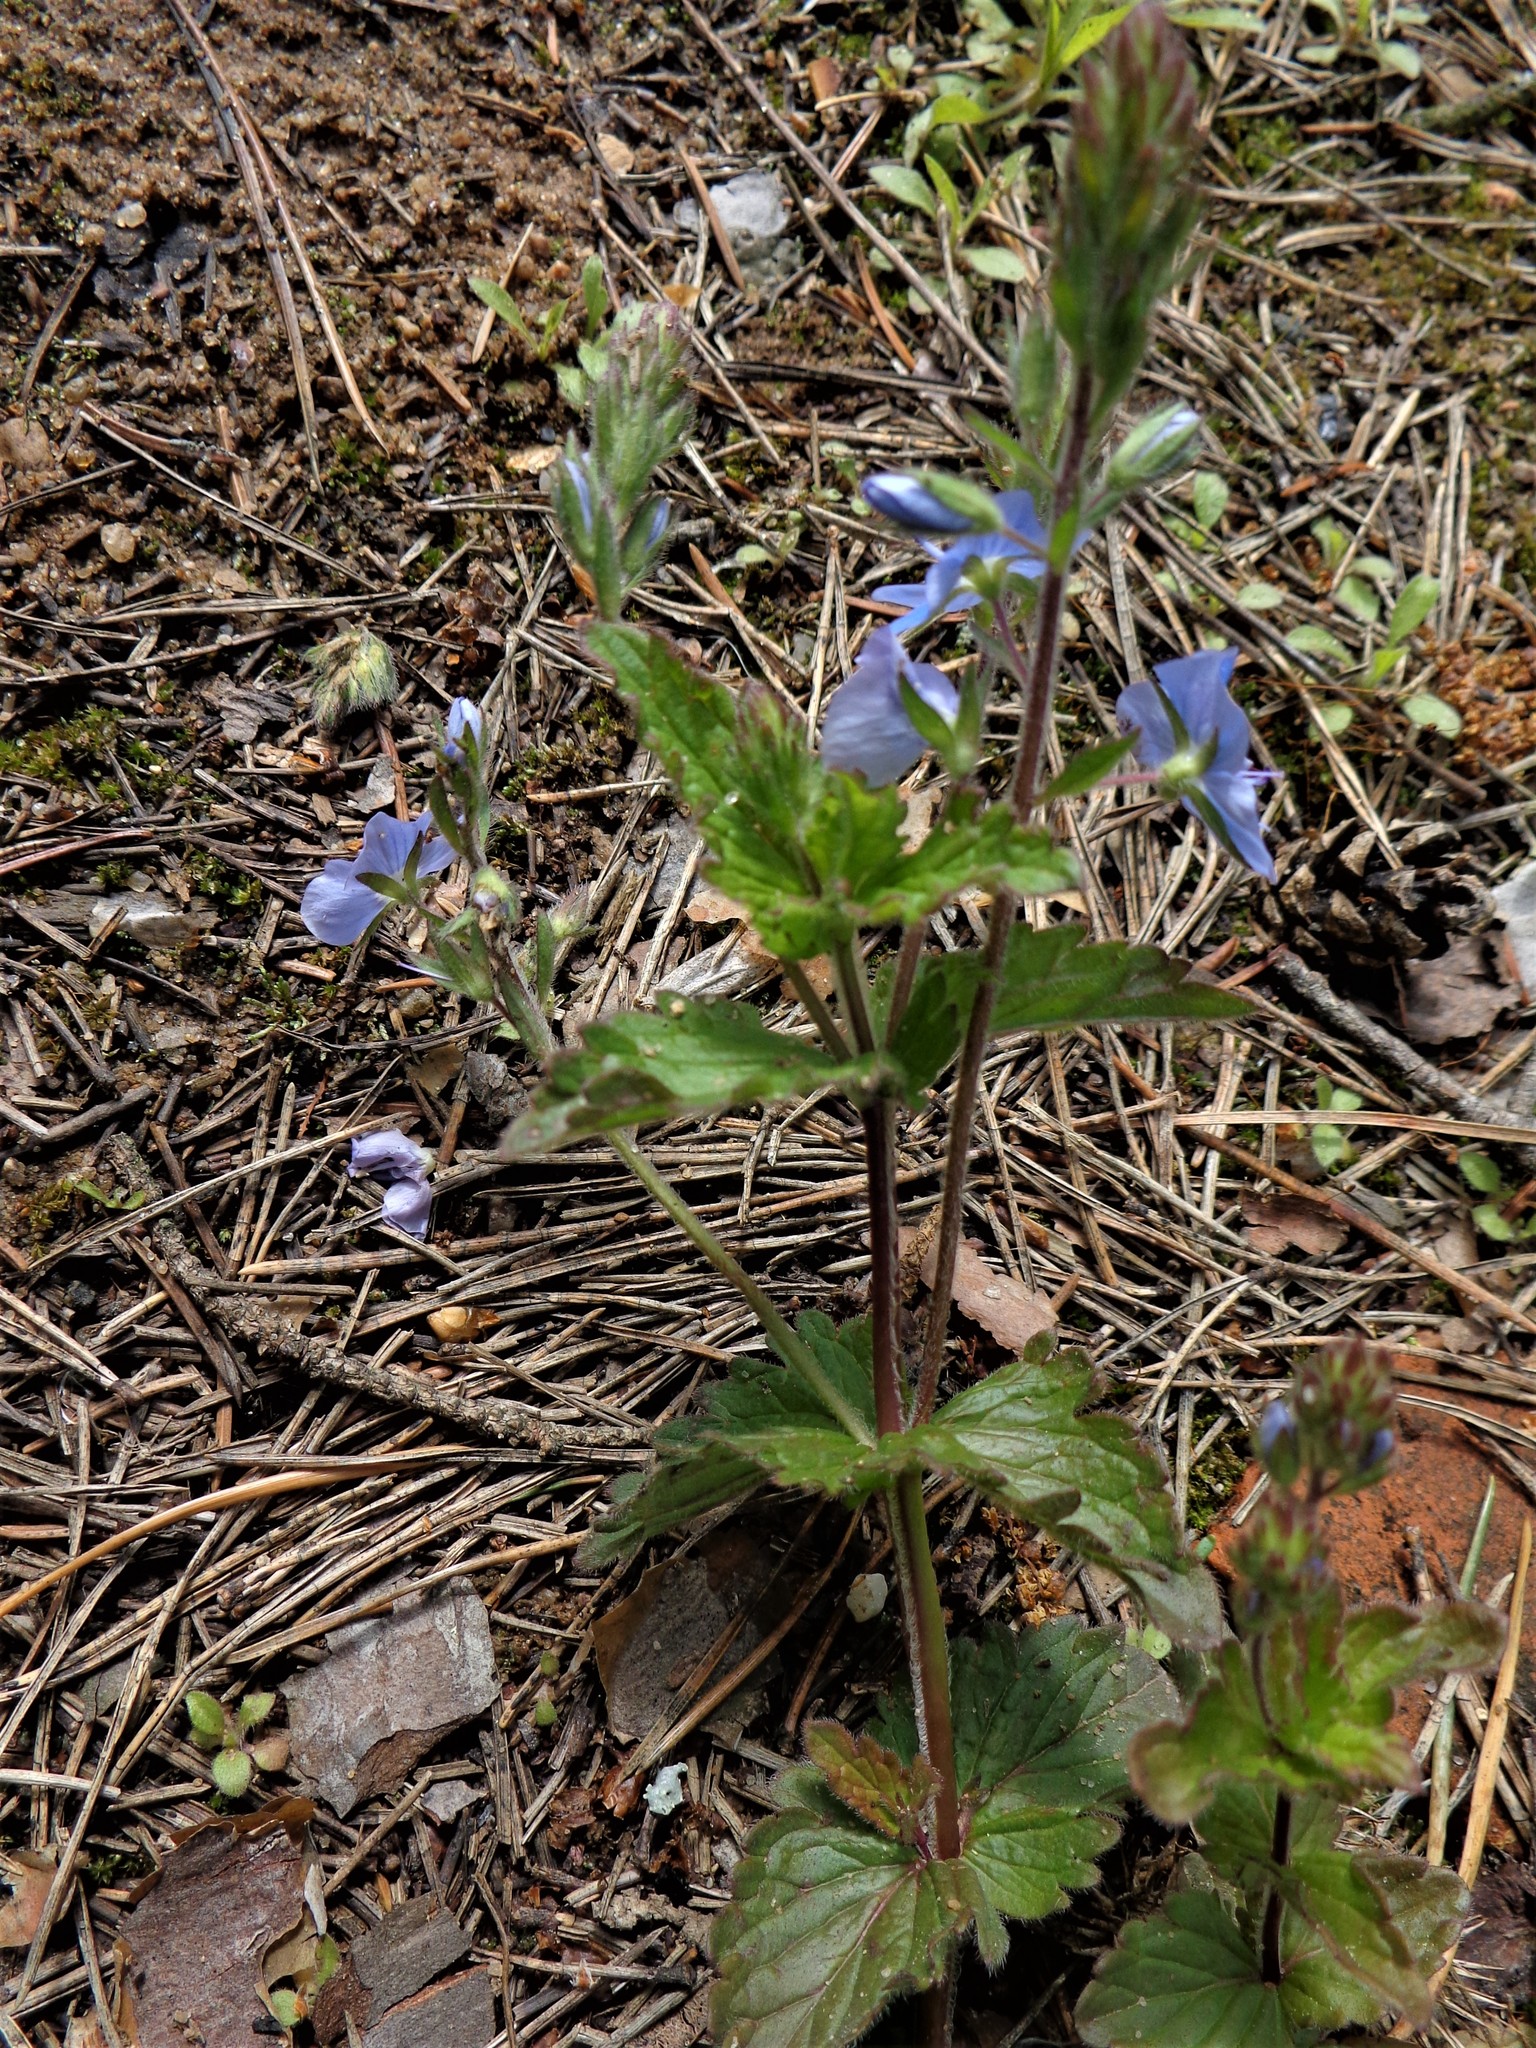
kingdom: Plantae
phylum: Tracheophyta
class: Magnoliopsida
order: Lamiales
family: Plantaginaceae
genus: Veronica
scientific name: Veronica chamaedrys
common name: Germander speedwell
